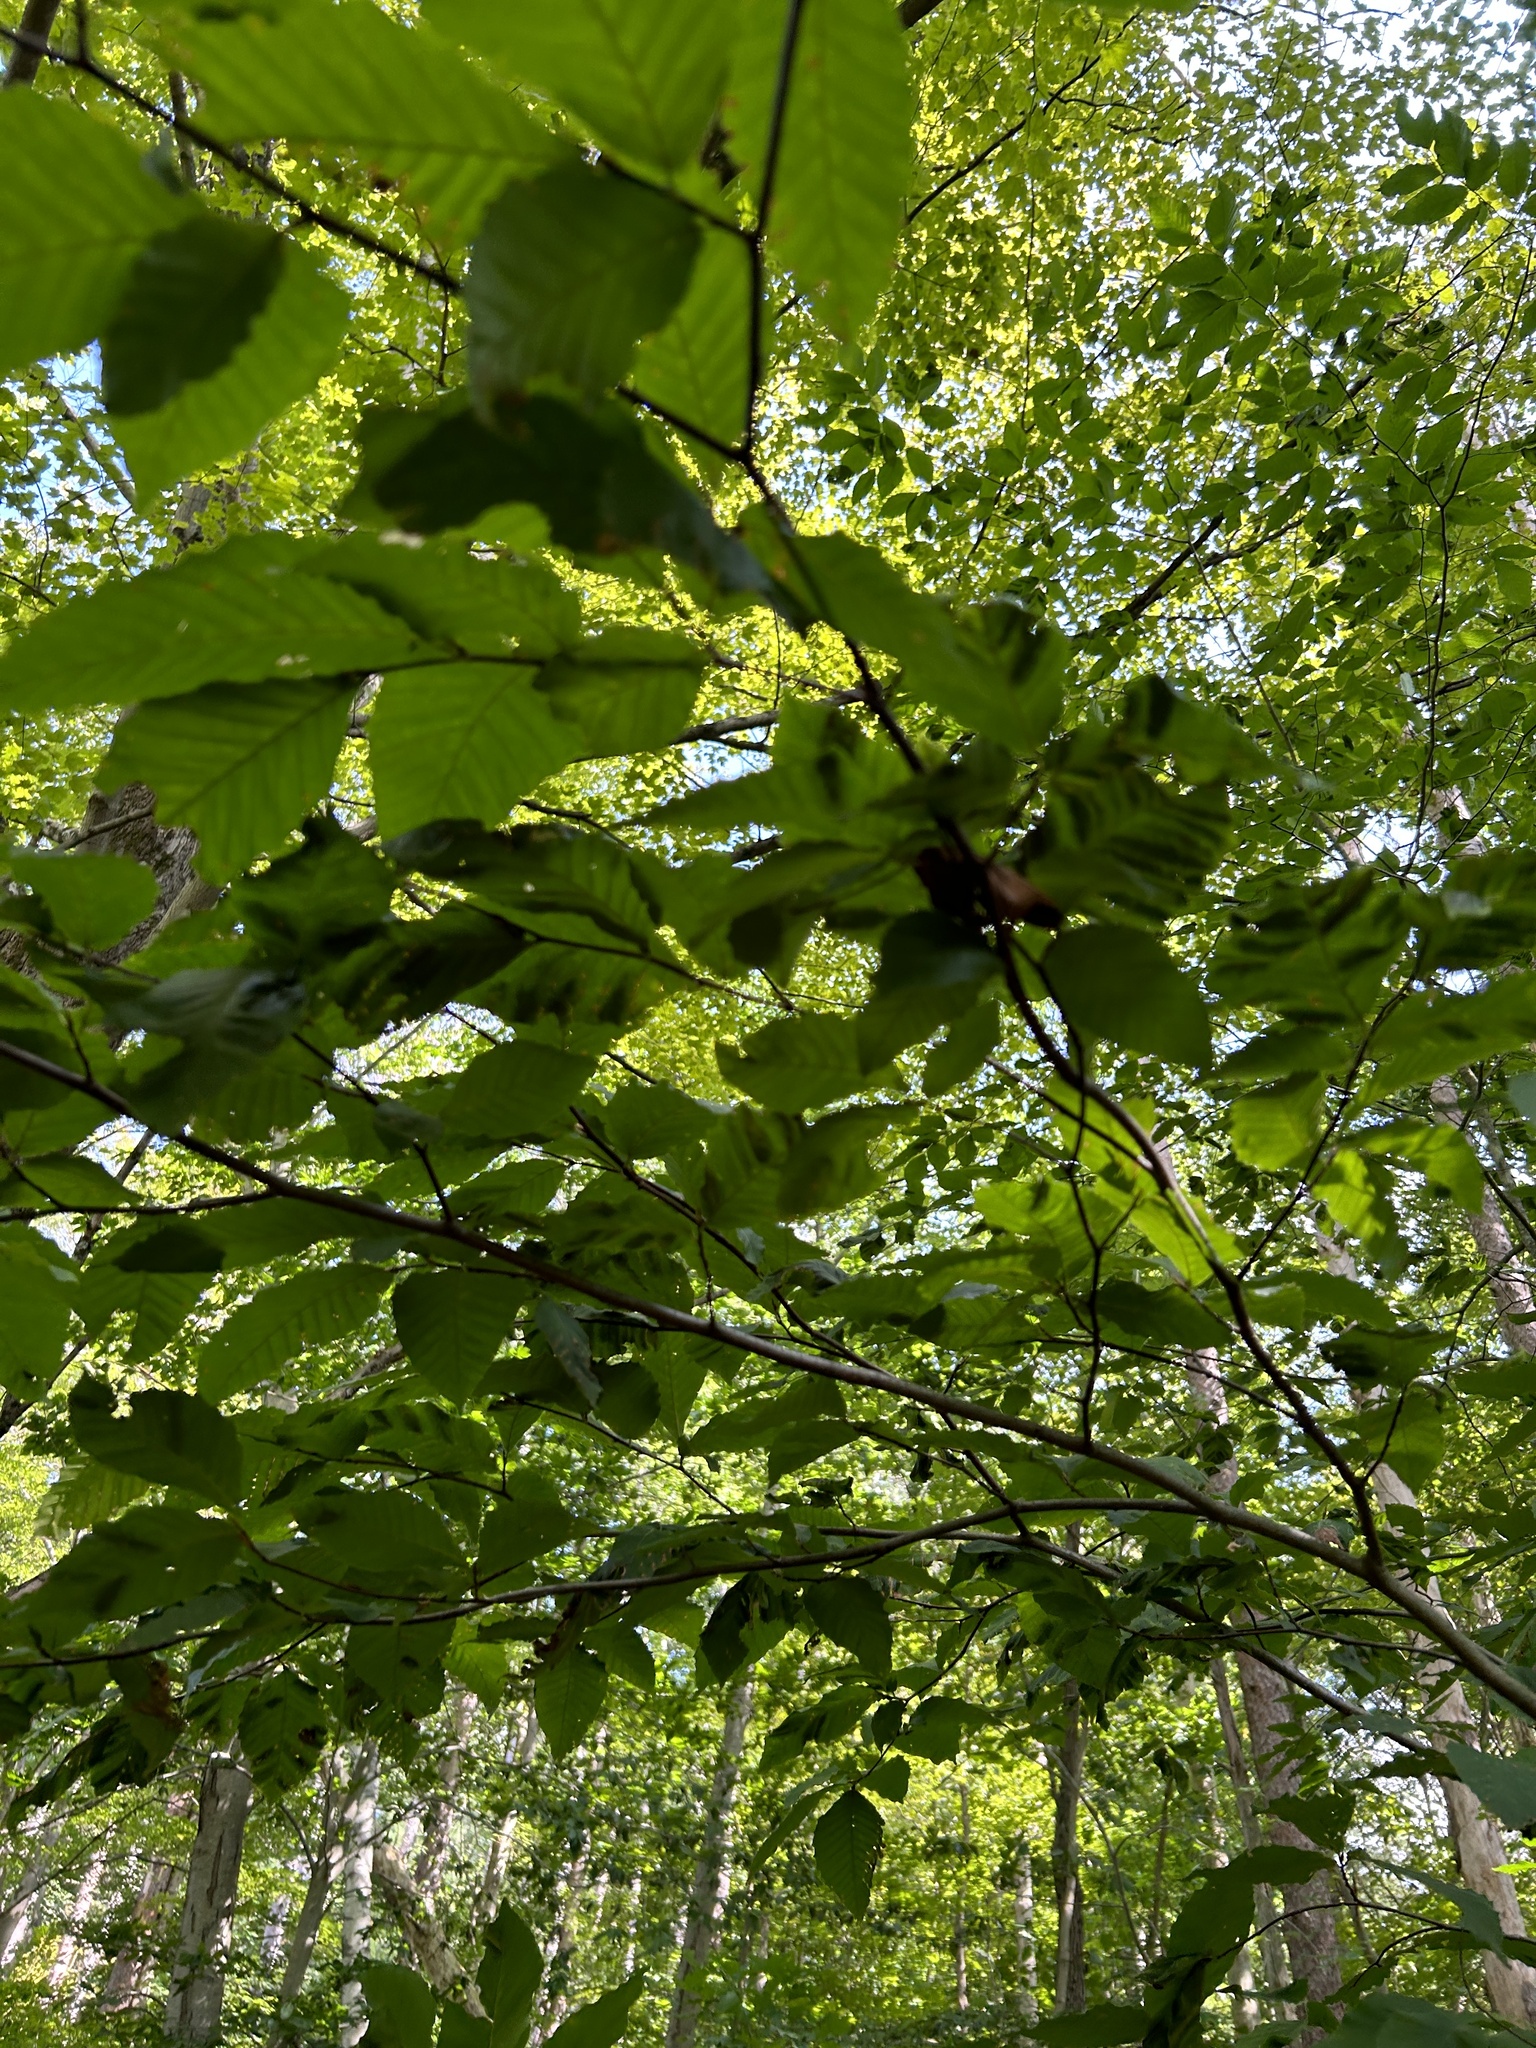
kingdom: Animalia
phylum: Nematoda
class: Chromadorea
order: Rhabditida
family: Anguinidae
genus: Litylenchus
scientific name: Litylenchus crenatae
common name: Beech leaf disease
